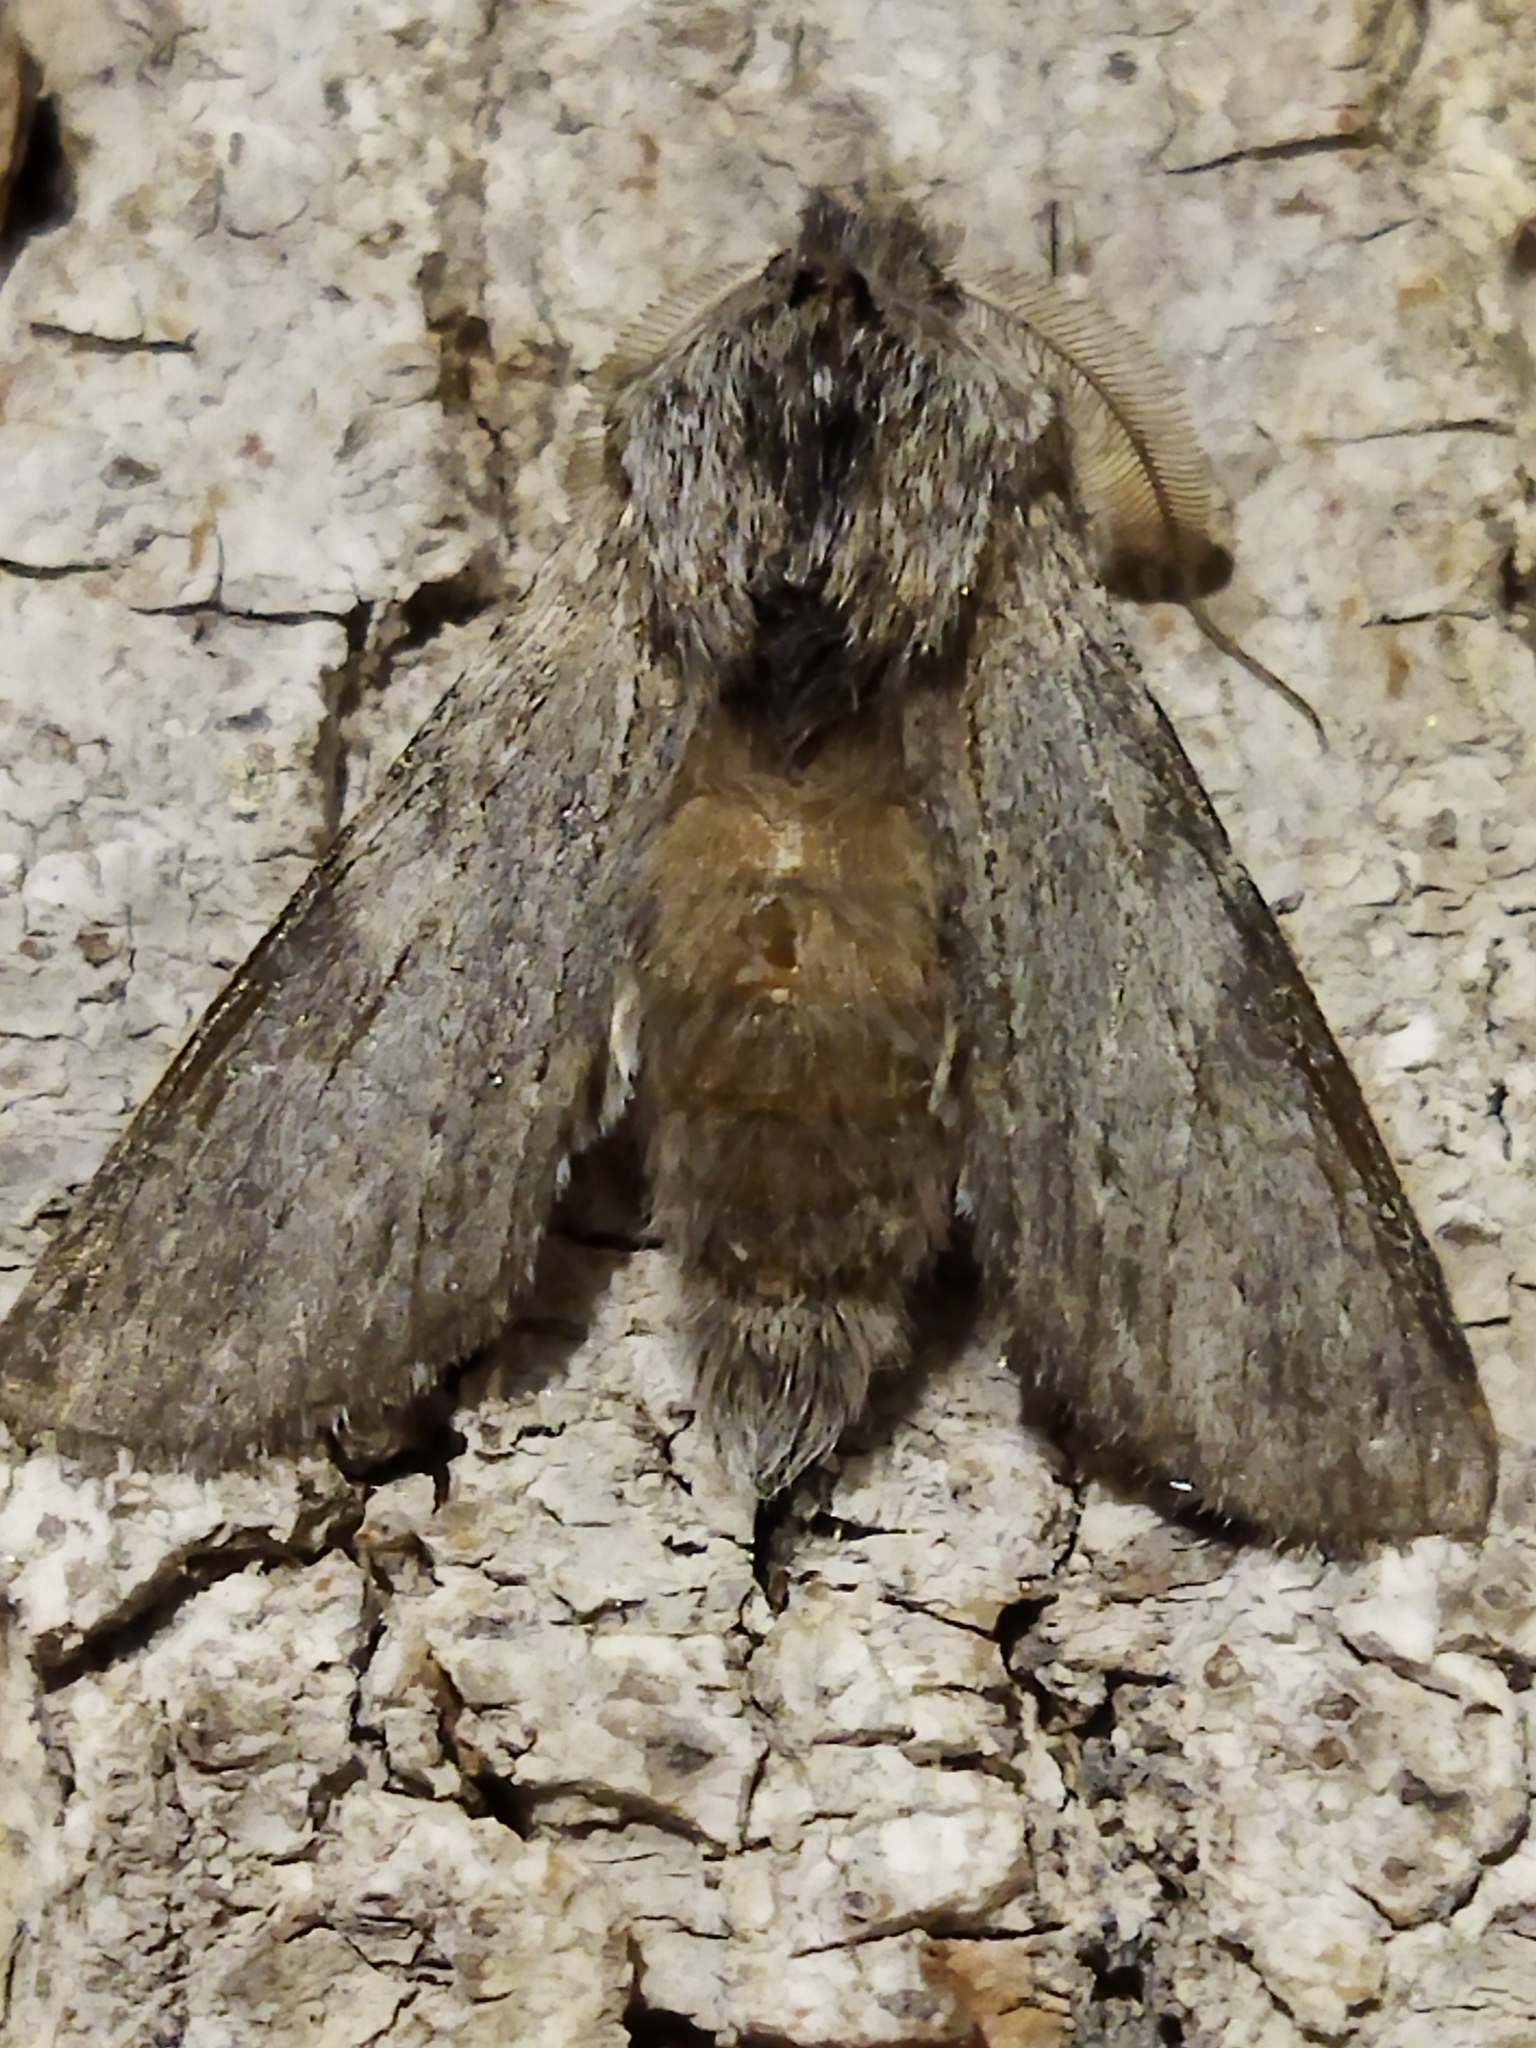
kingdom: Animalia
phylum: Arthropoda
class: Insecta
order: Lepidoptera
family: Notodontidae
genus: Dicranura
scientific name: Dicranura ulmi
